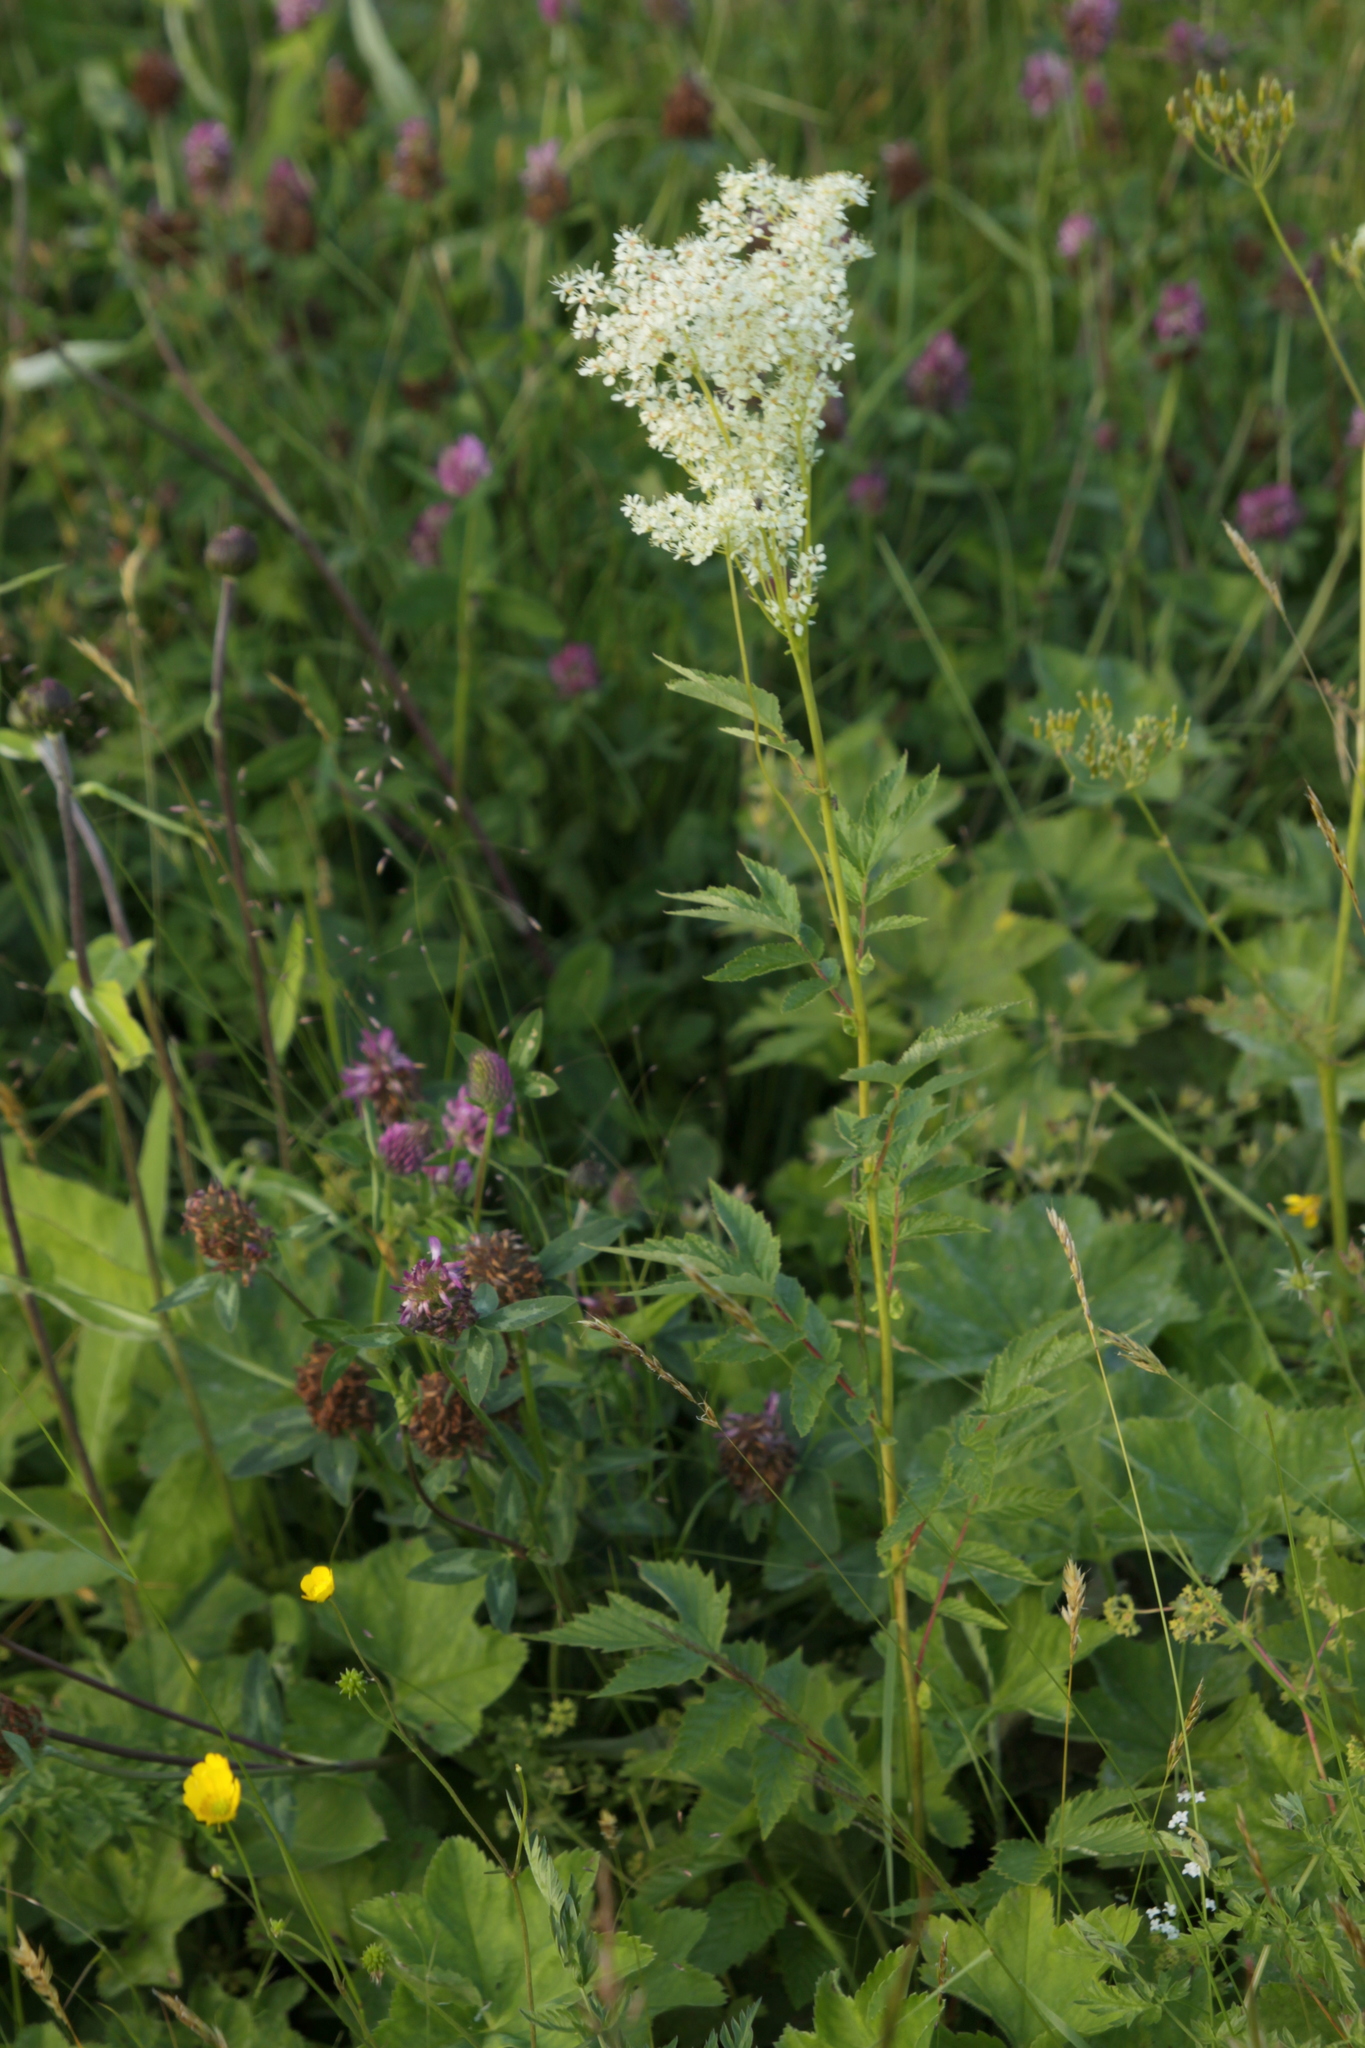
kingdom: Plantae
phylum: Tracheophyta
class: Magnoliopsida
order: Rosales
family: Rosaceae
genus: Filipendula
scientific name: Filipendula ulmaria
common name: Meadowsweet
